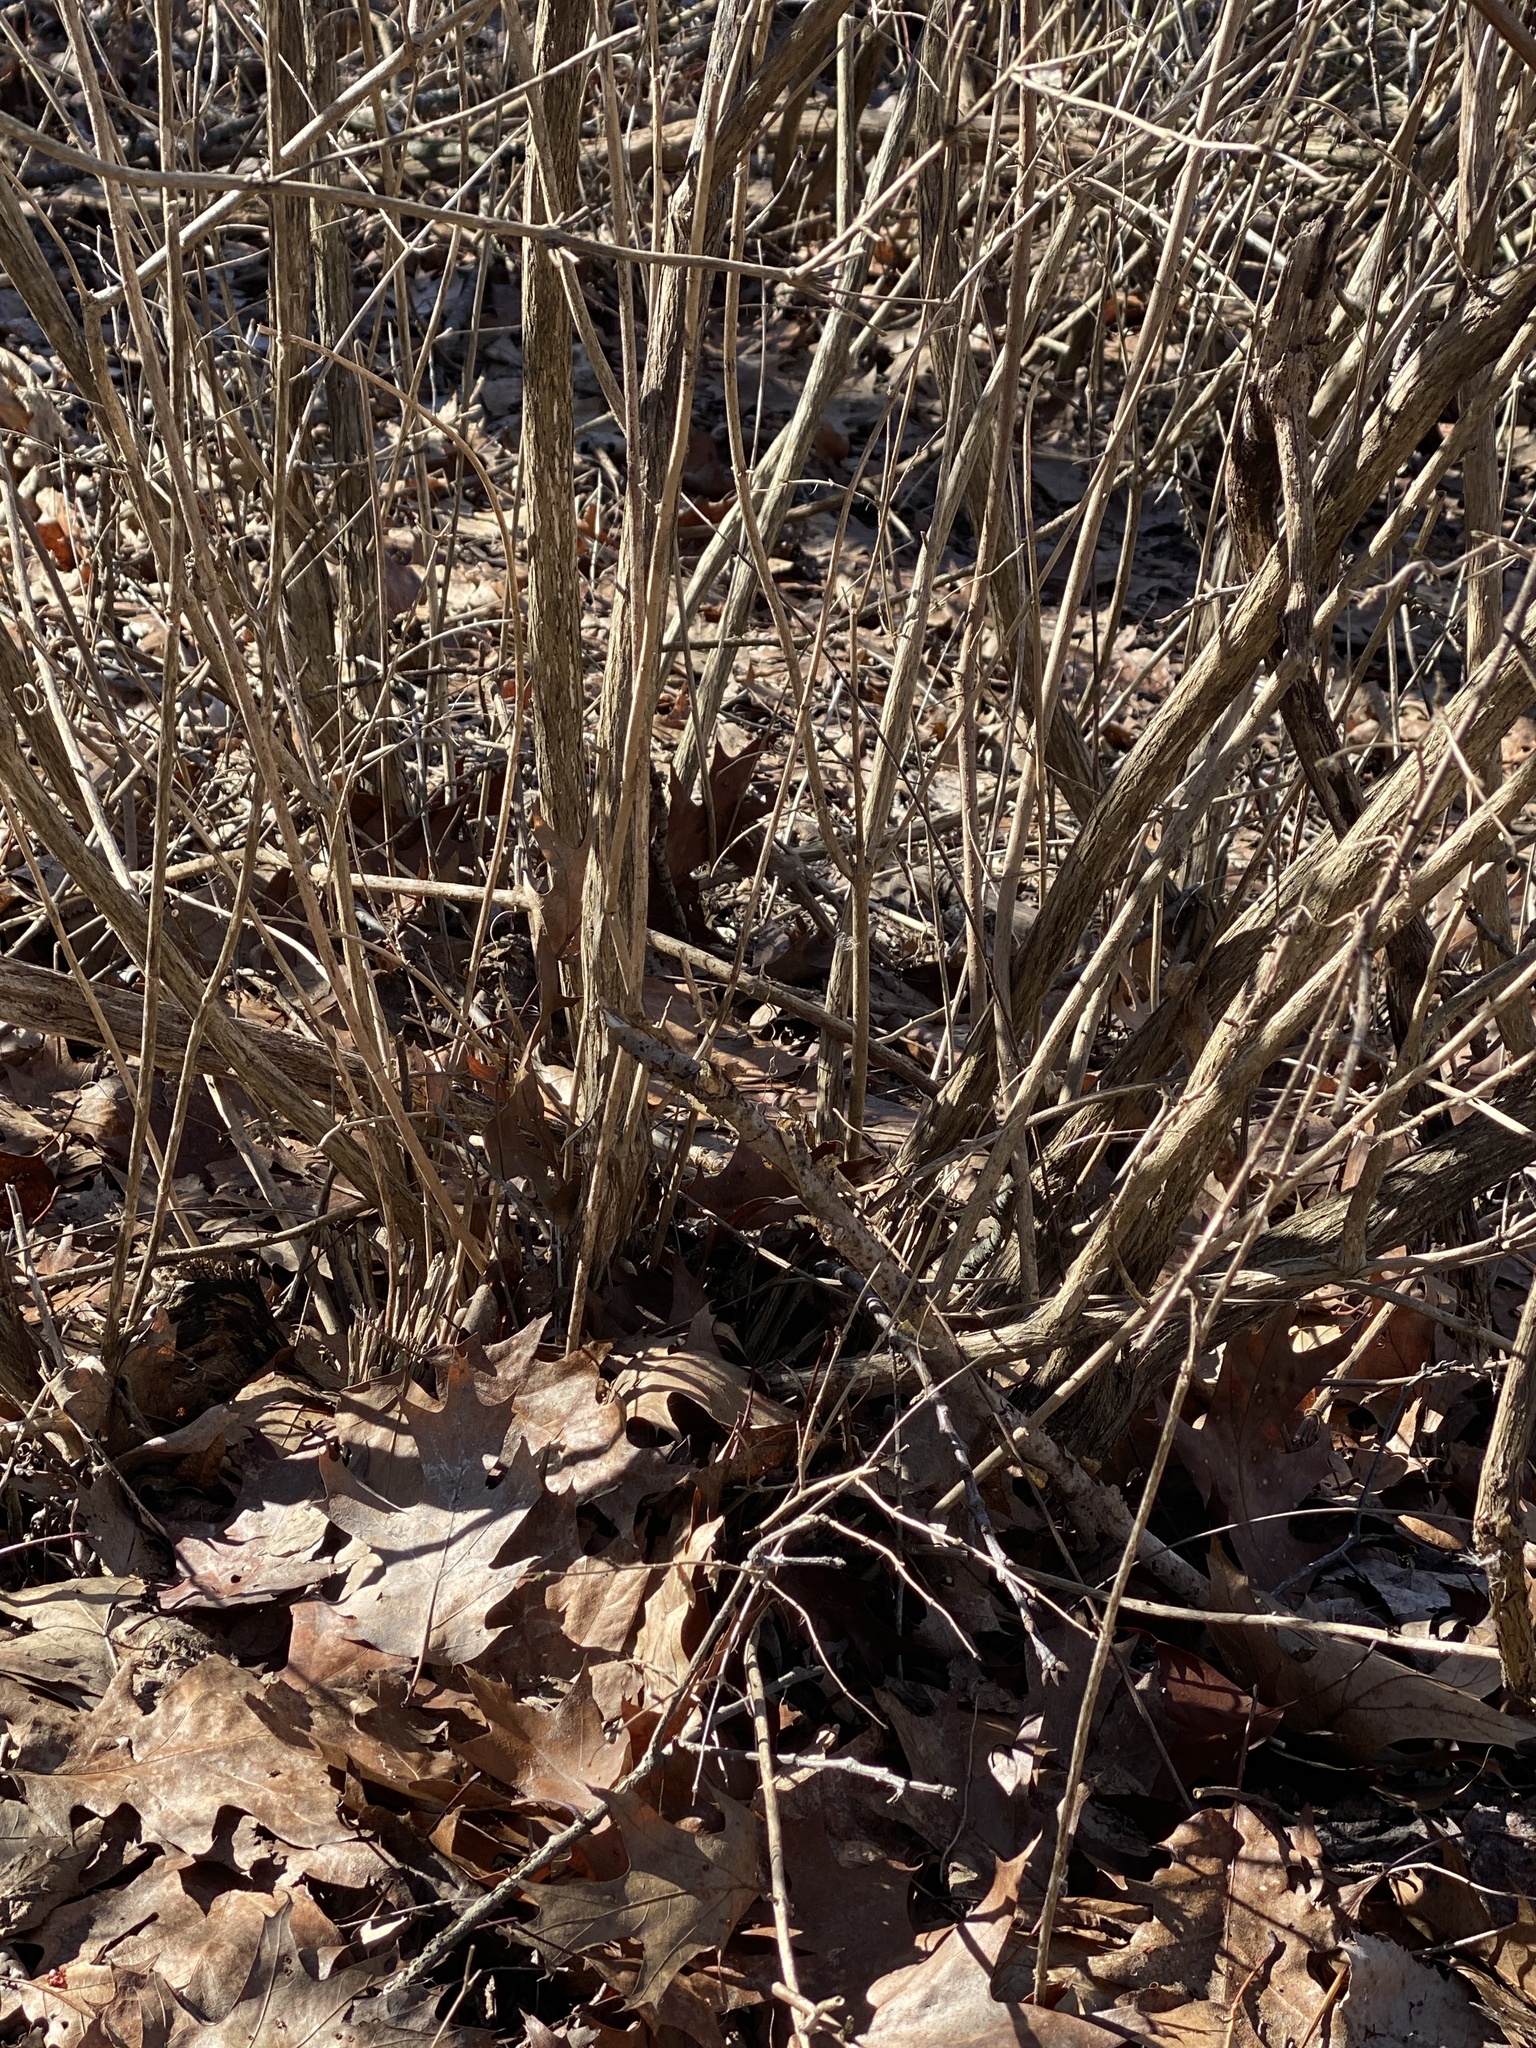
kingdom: Plantae
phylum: Tracheophyta
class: Magnoliopsida
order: Dipsacales
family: Caprifoliaceae
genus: Lonicera
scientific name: Lonicera
